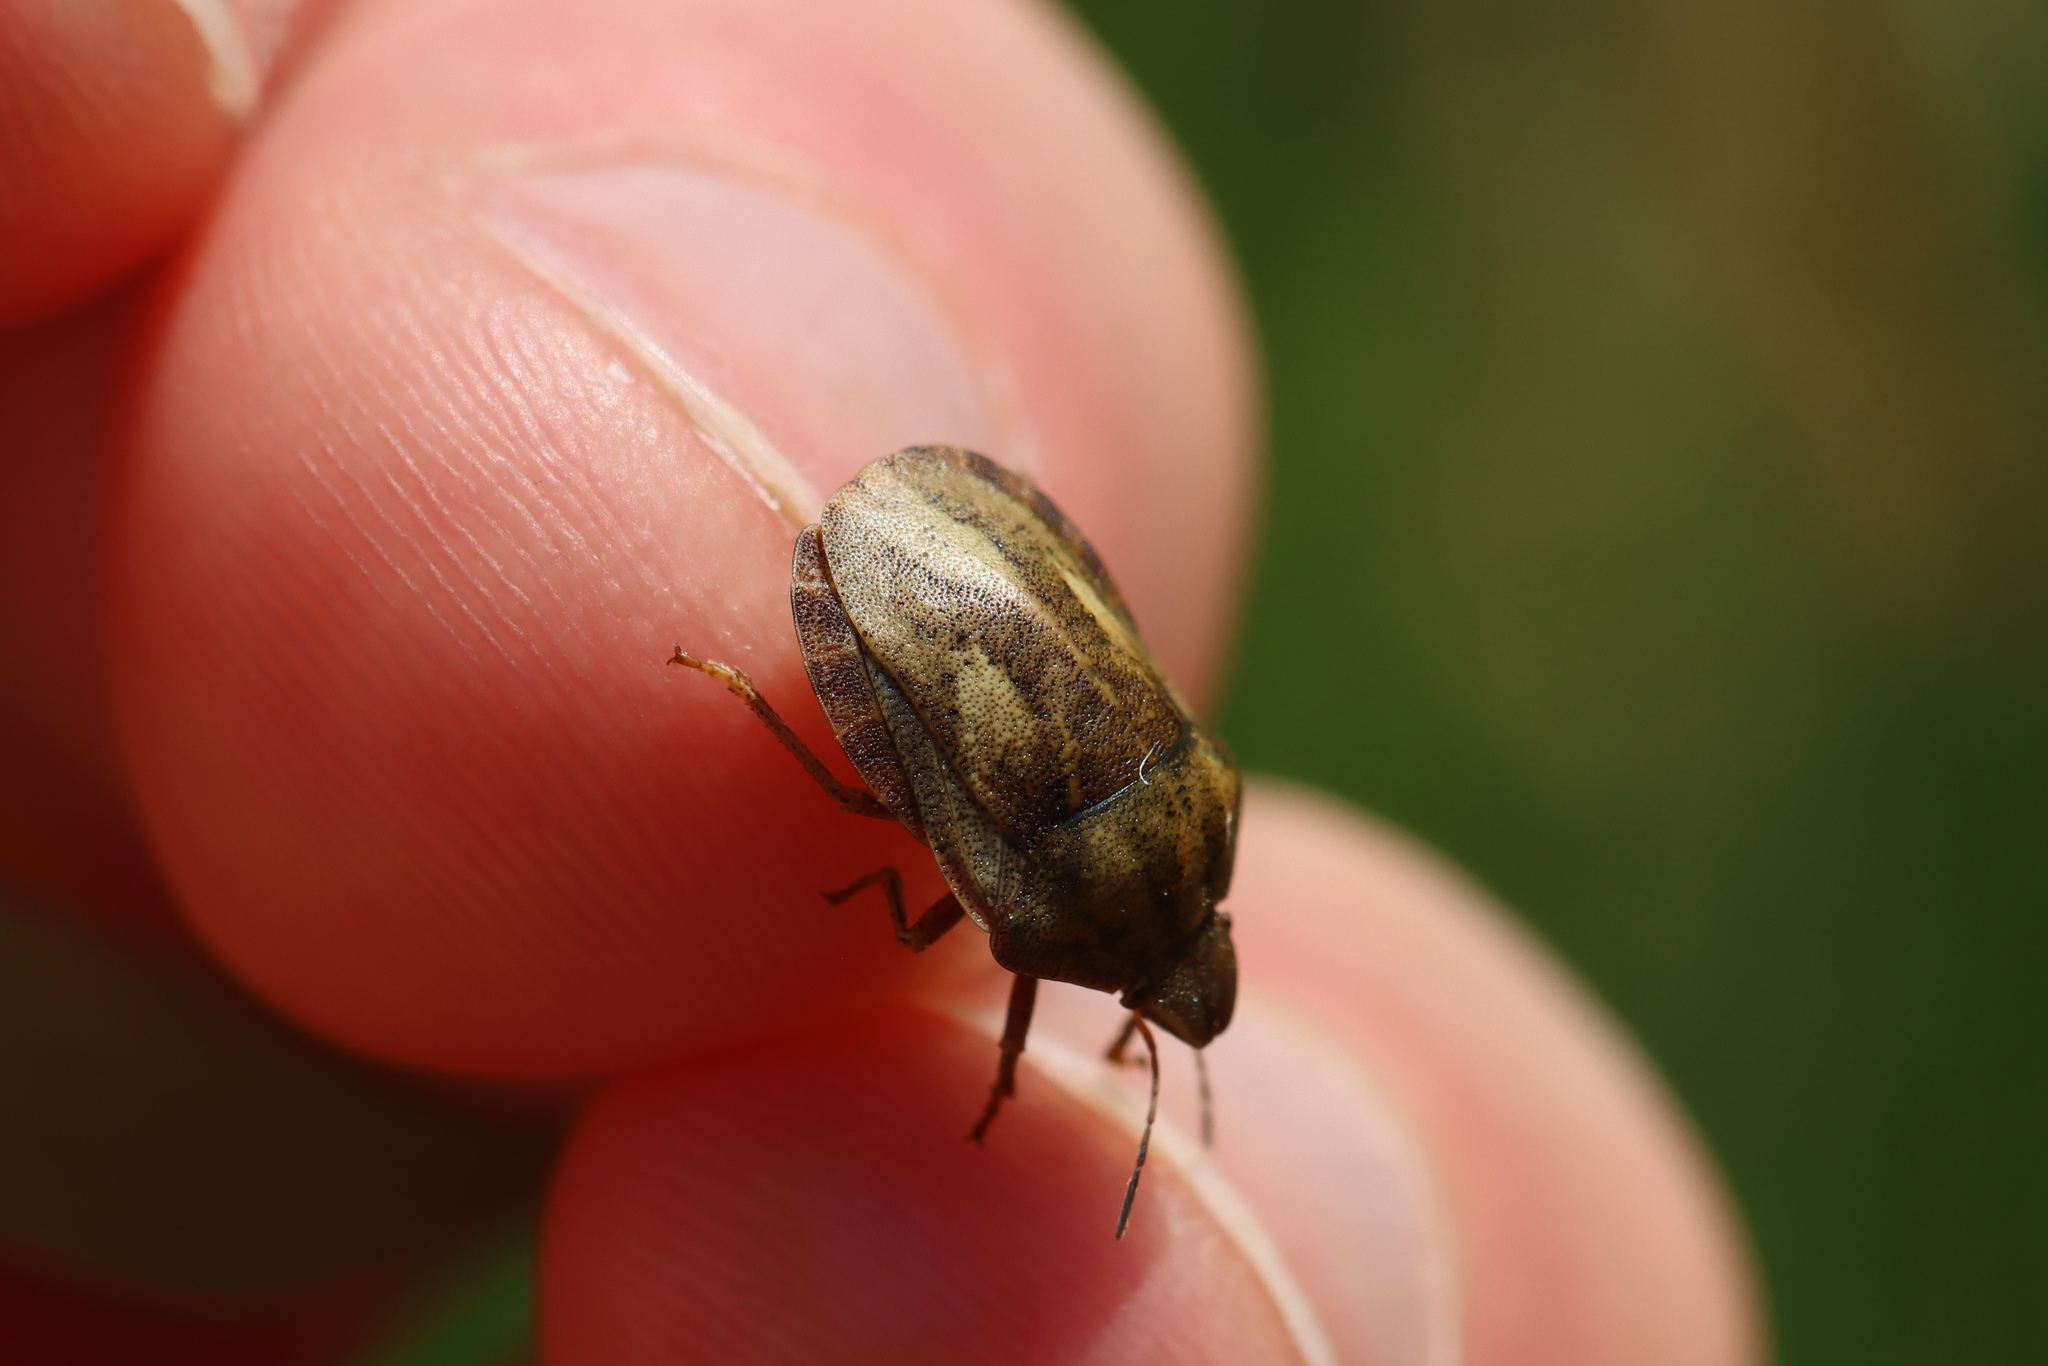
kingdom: Animalia
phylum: Arthropoda
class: Insecta
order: Hemiptera
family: Scutelleridae
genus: Eurygaster
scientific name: Eurygaster testudinaria
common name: Tortoise bug
